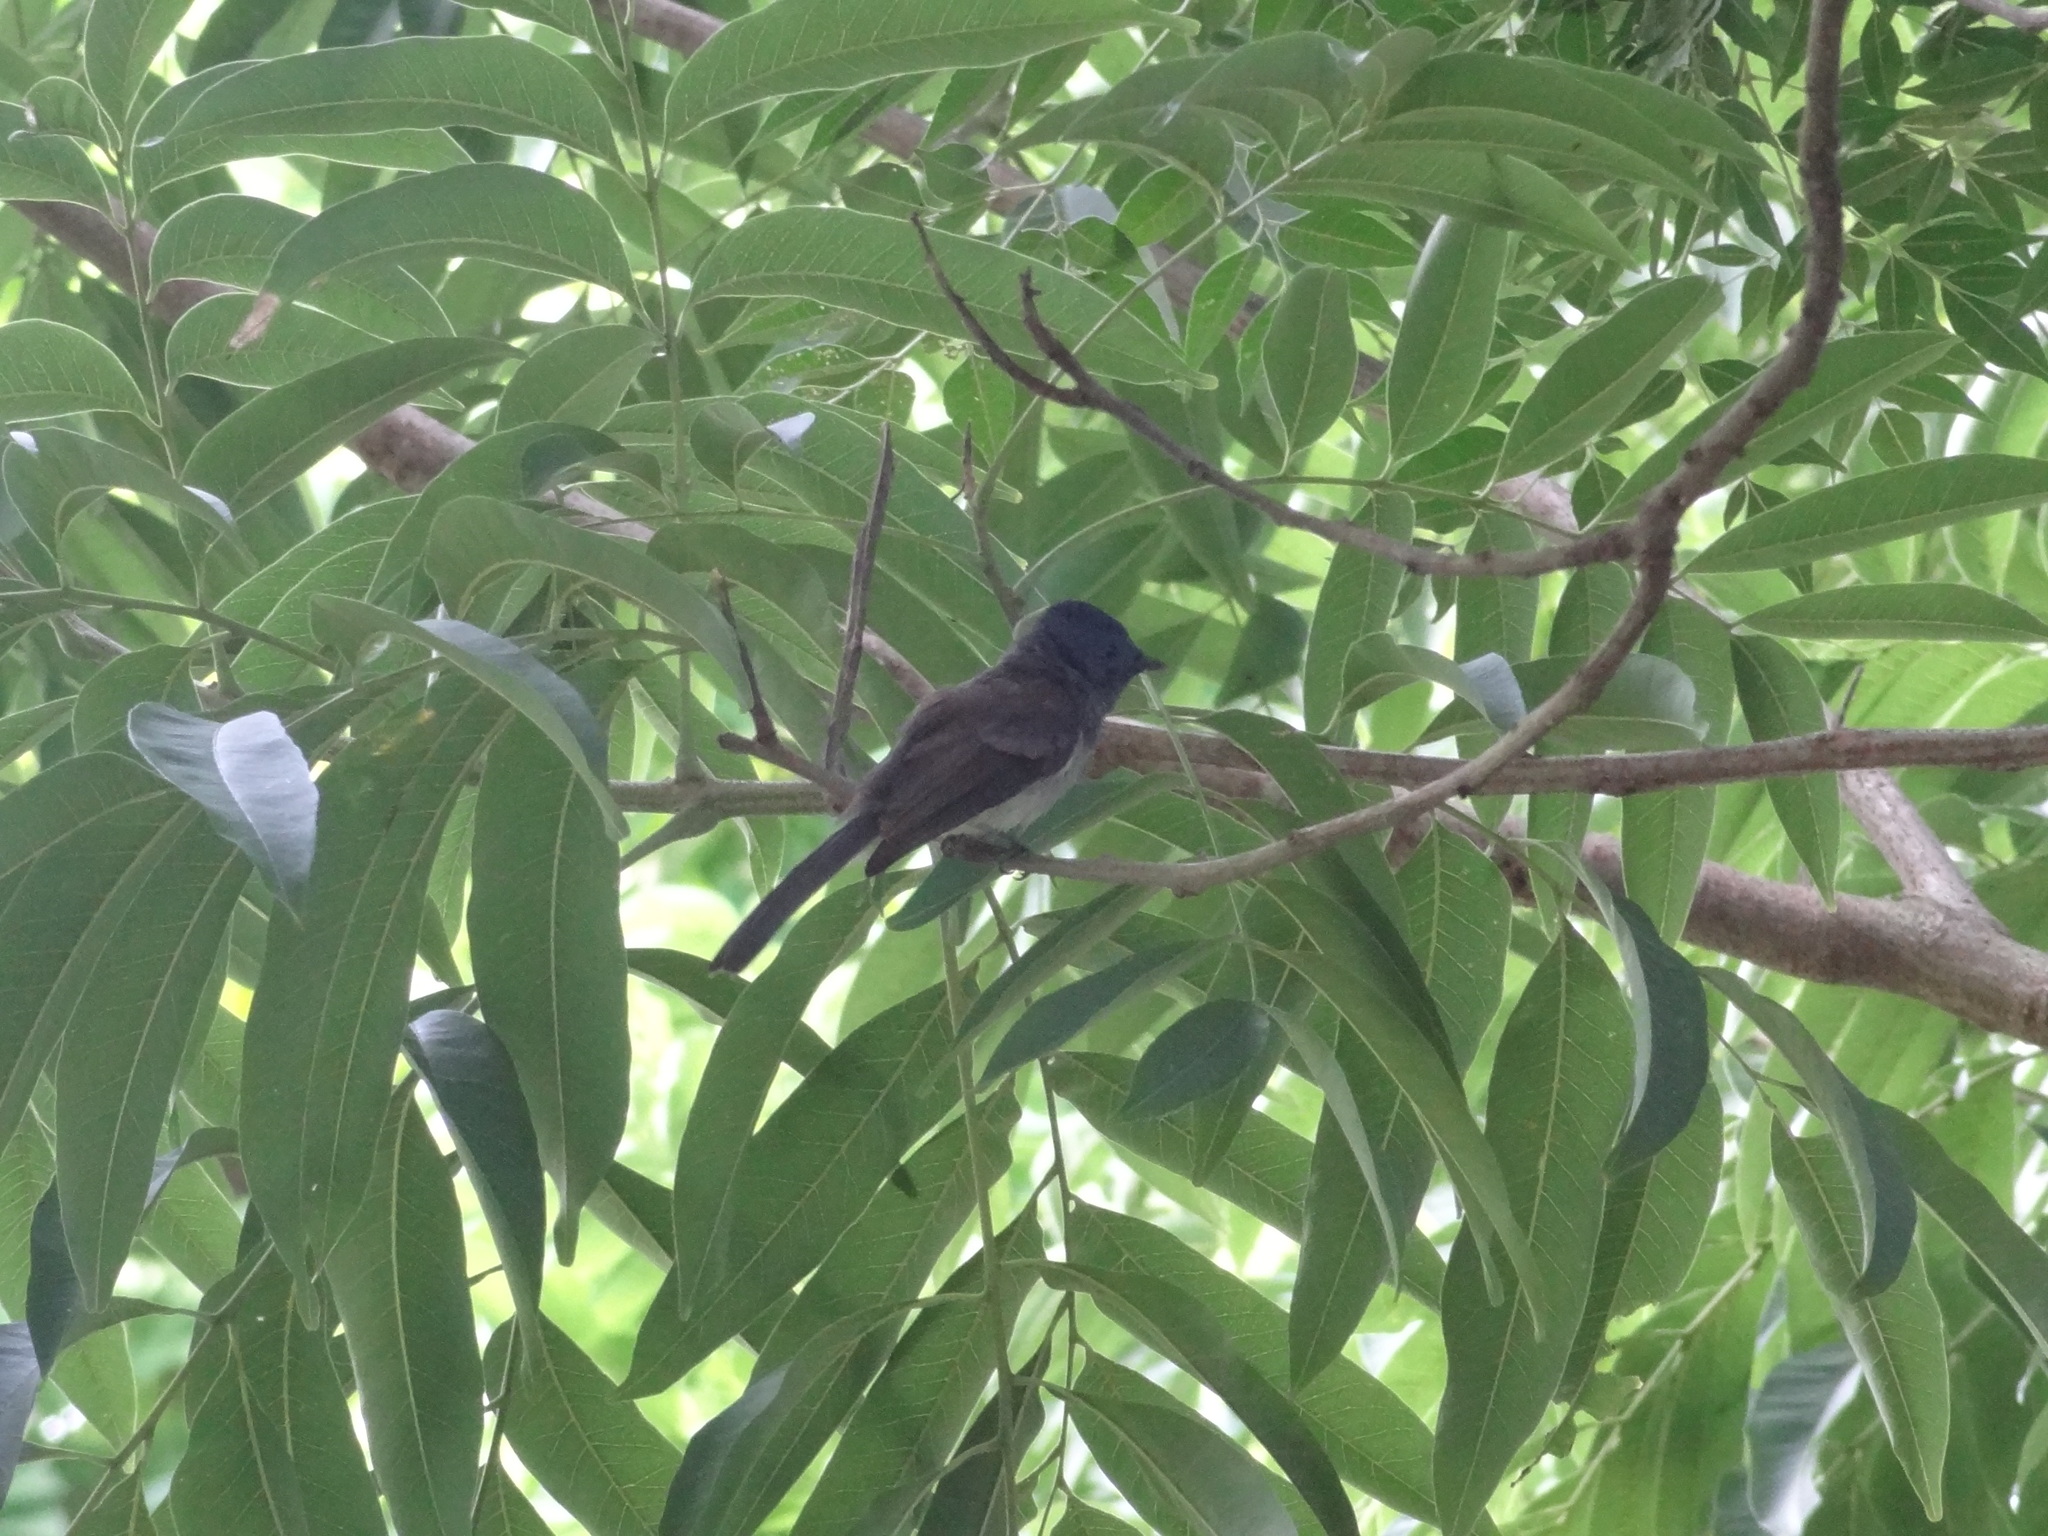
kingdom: Animalia
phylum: Chordata
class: Aves
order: Passeriformes
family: Monarchidae
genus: Hypothymis
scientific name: Hypothymis azurea
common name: Black-naped monarch
